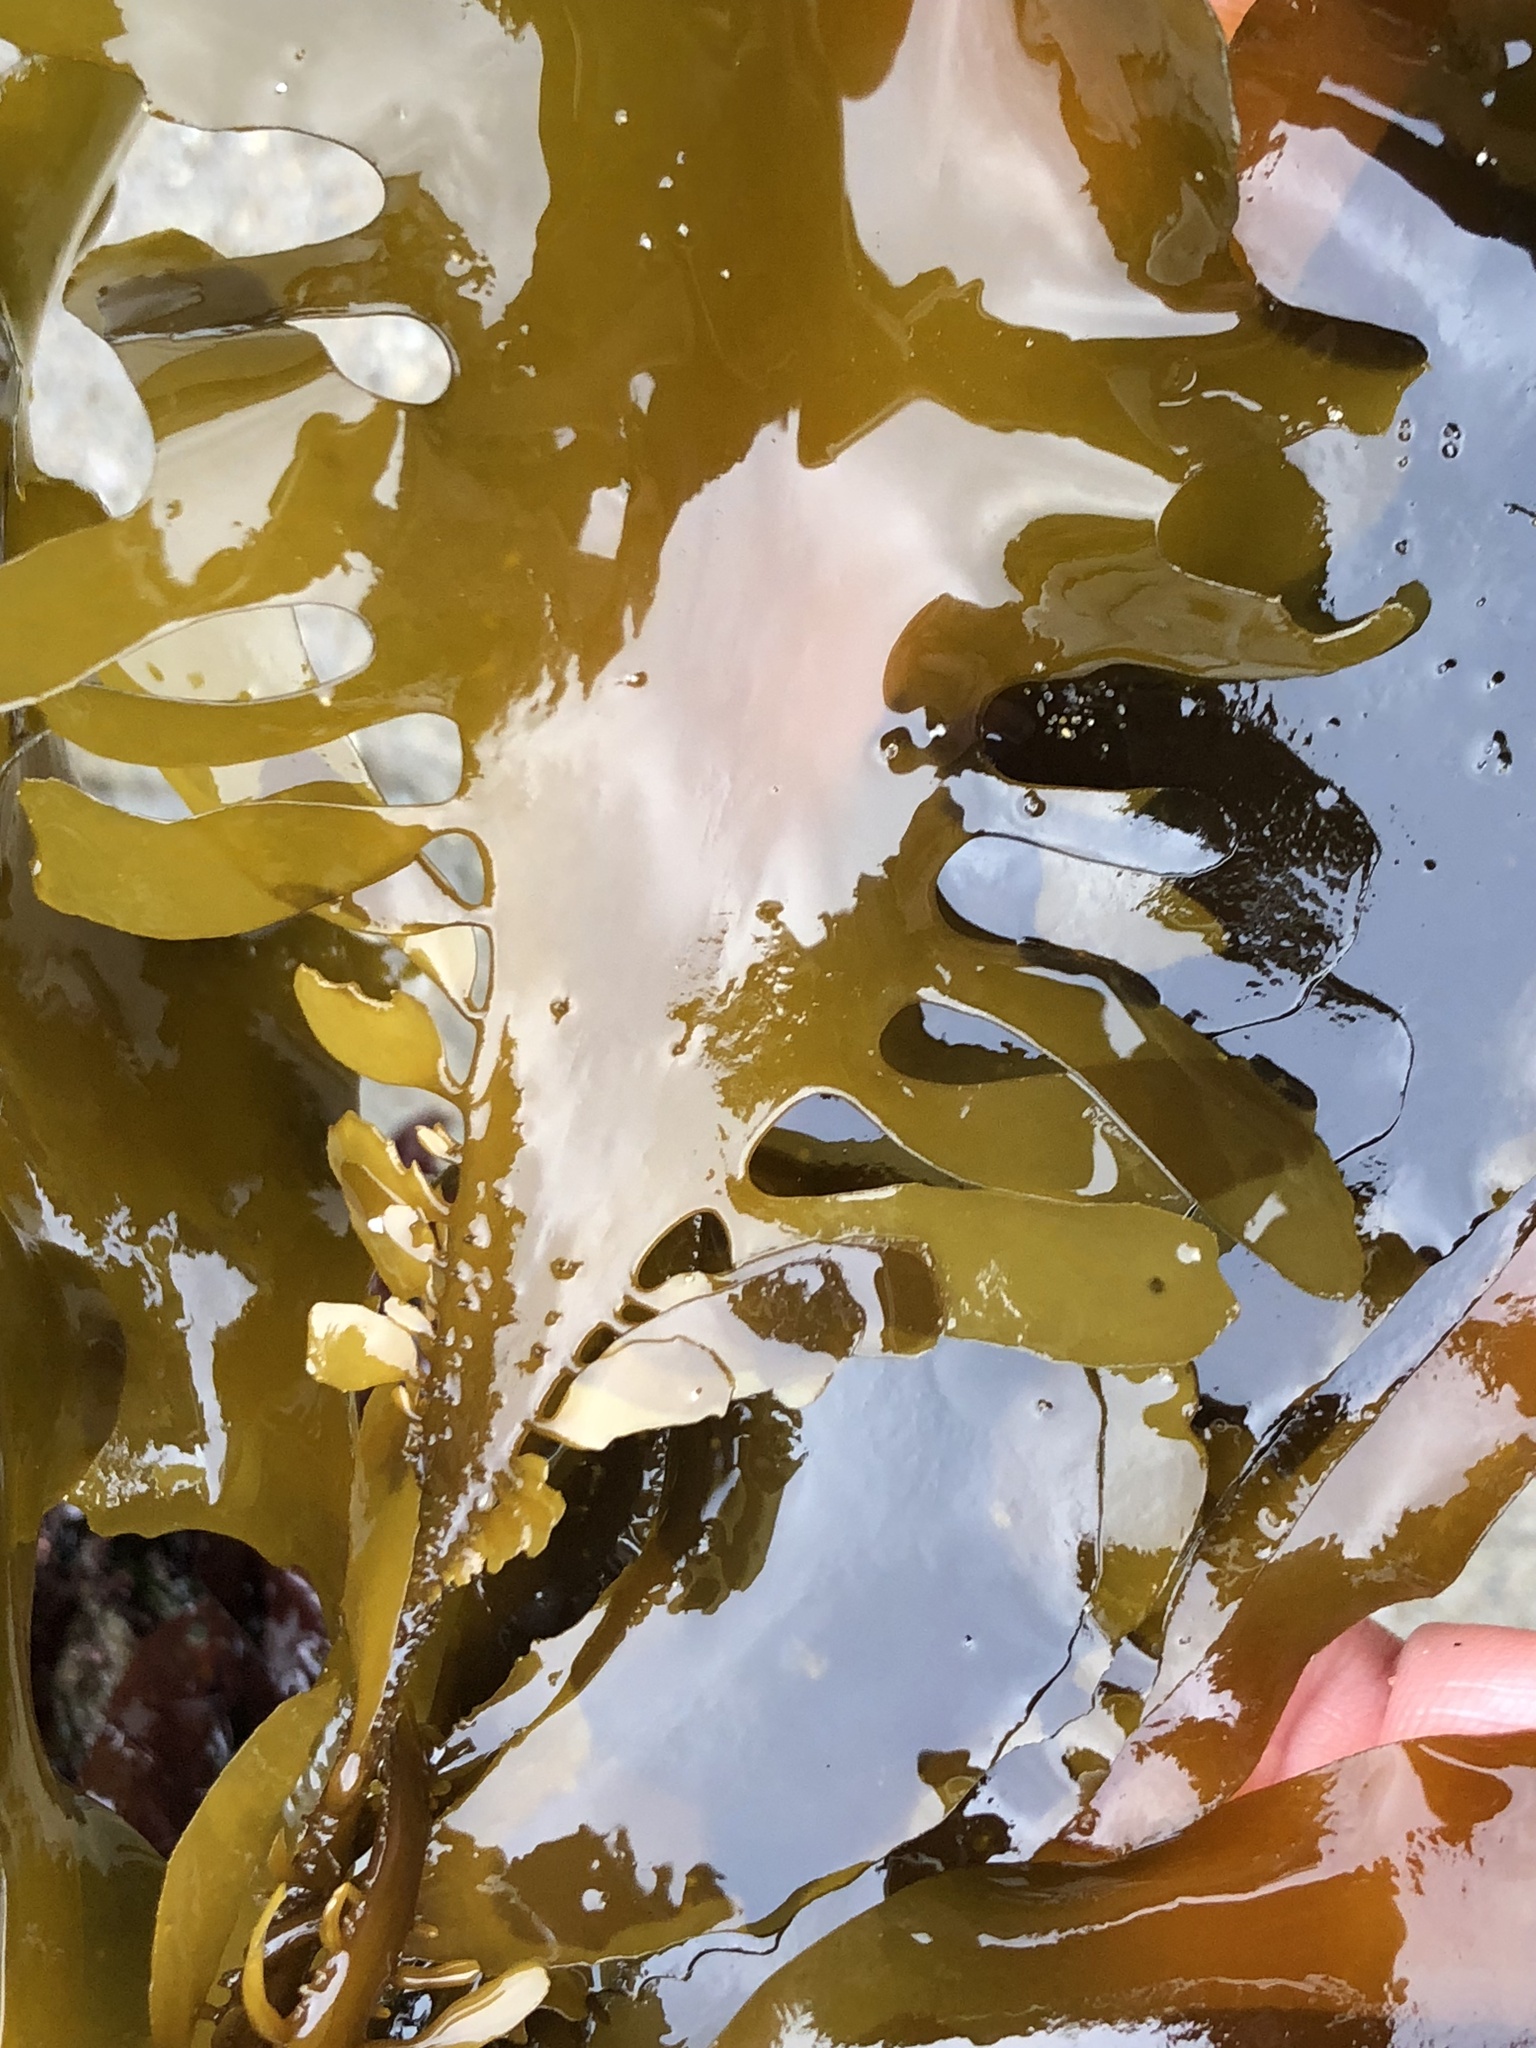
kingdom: Chromista
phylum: Ochrophyta
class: Phaeophyceae
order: Laminariales
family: Lessoniaceae
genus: Egregia
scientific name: Egregia menziesii
